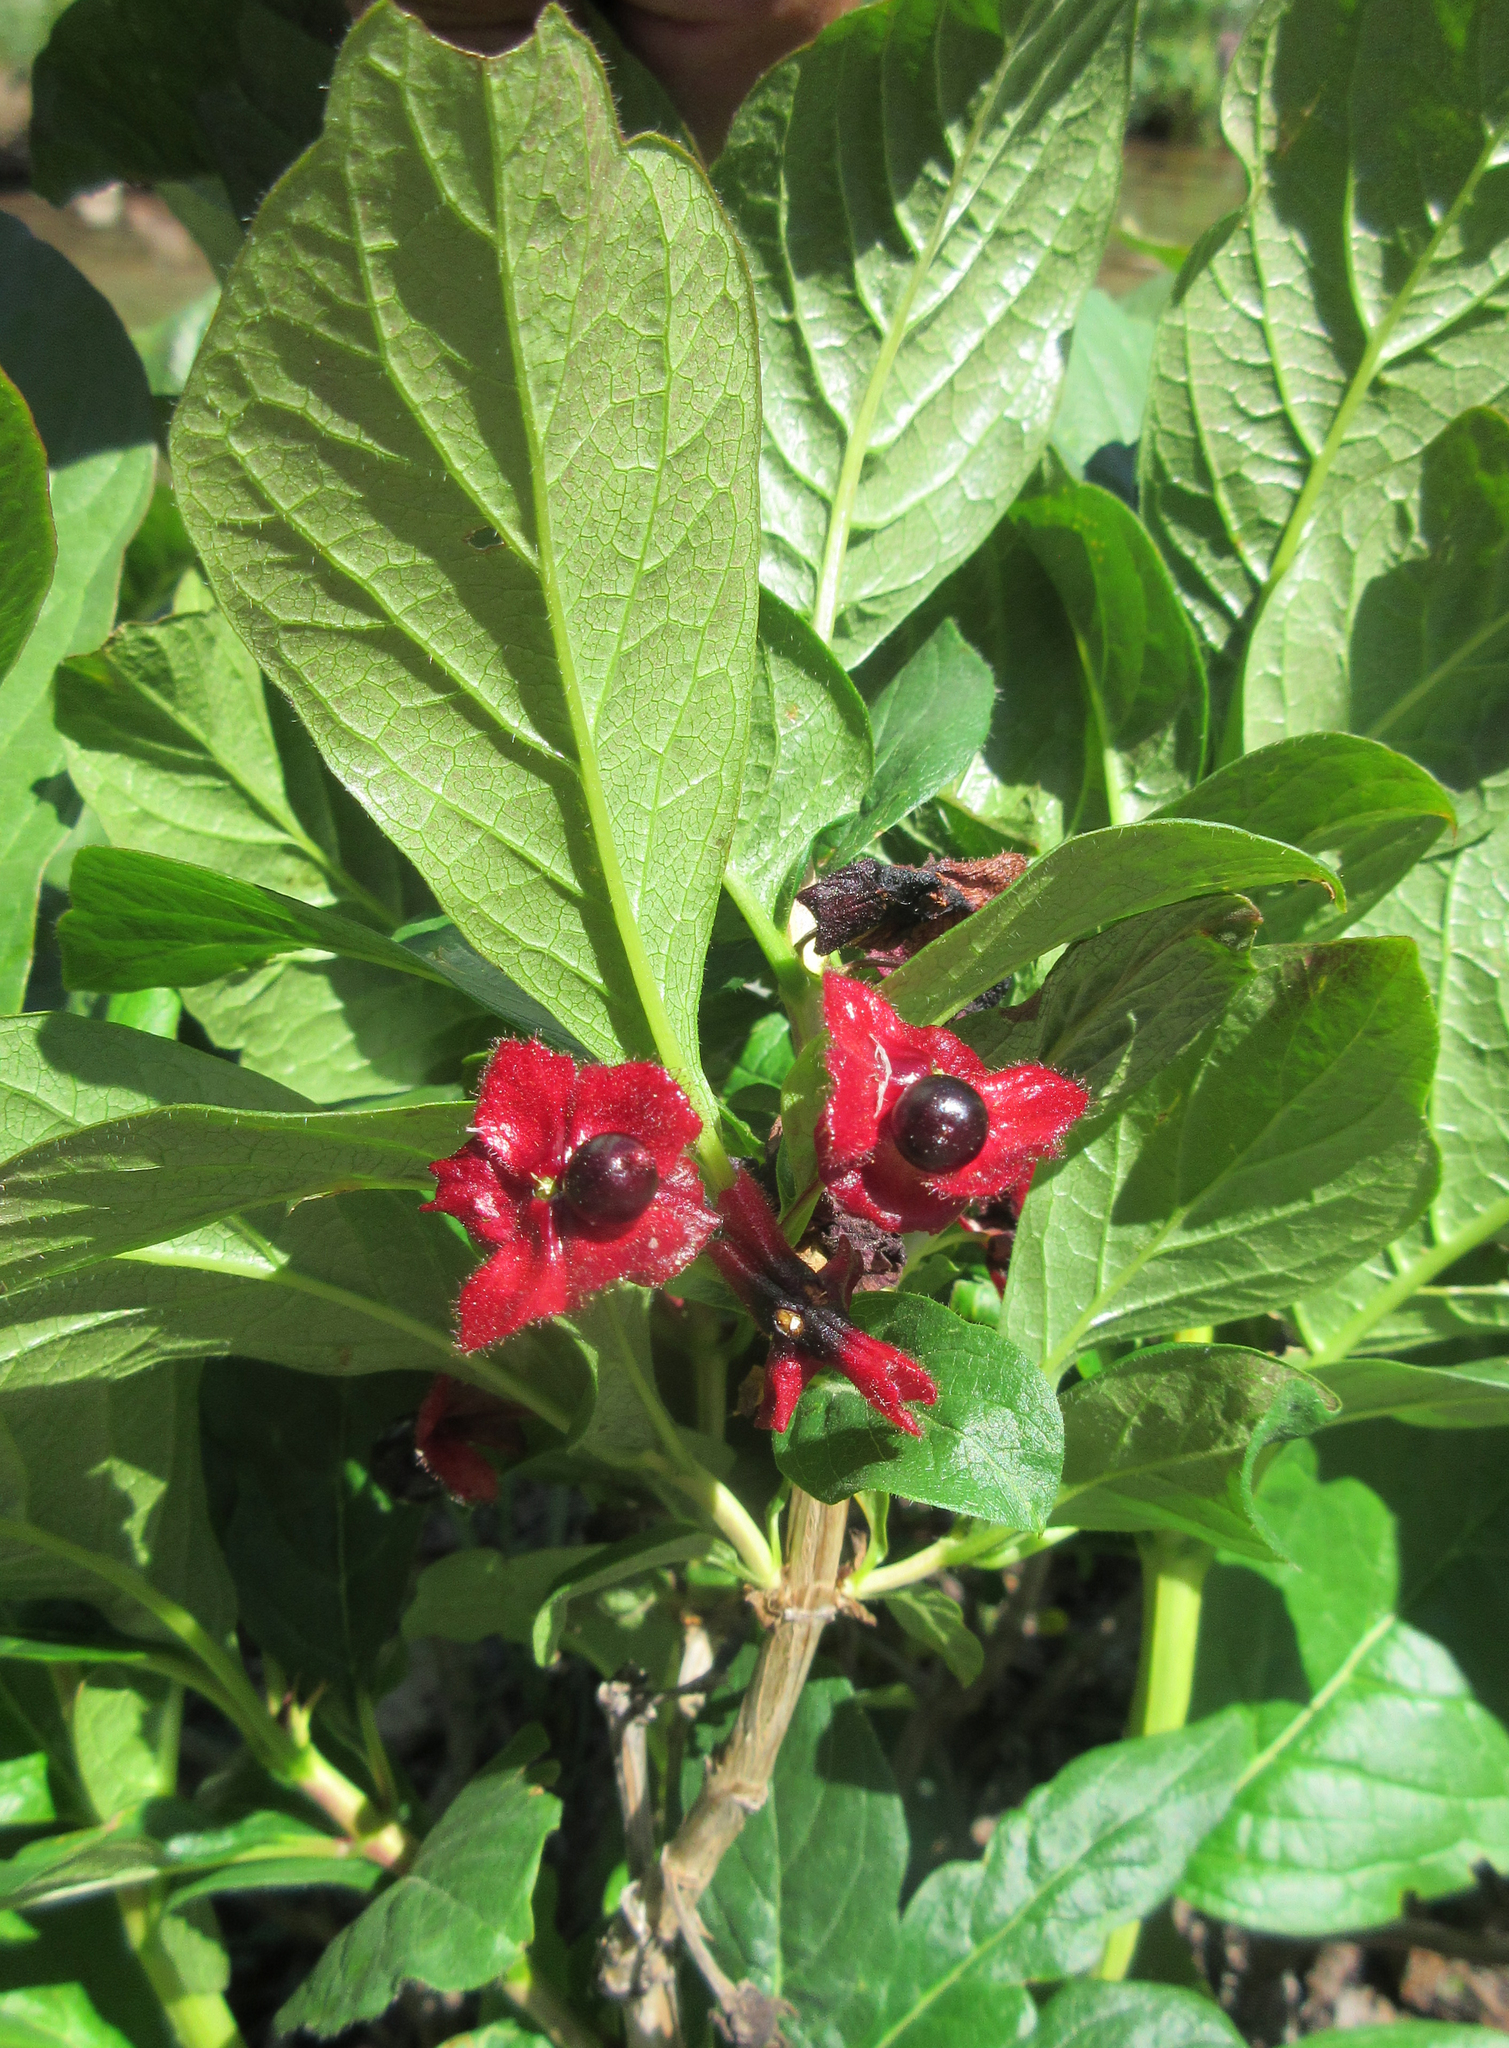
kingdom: Plantae
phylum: Tracheophyta
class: Magnoliopsida
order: Dipsacales
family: Caprifoliaceae
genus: Lonicera
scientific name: Lonicera involucrata
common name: Californian honeysuckle
